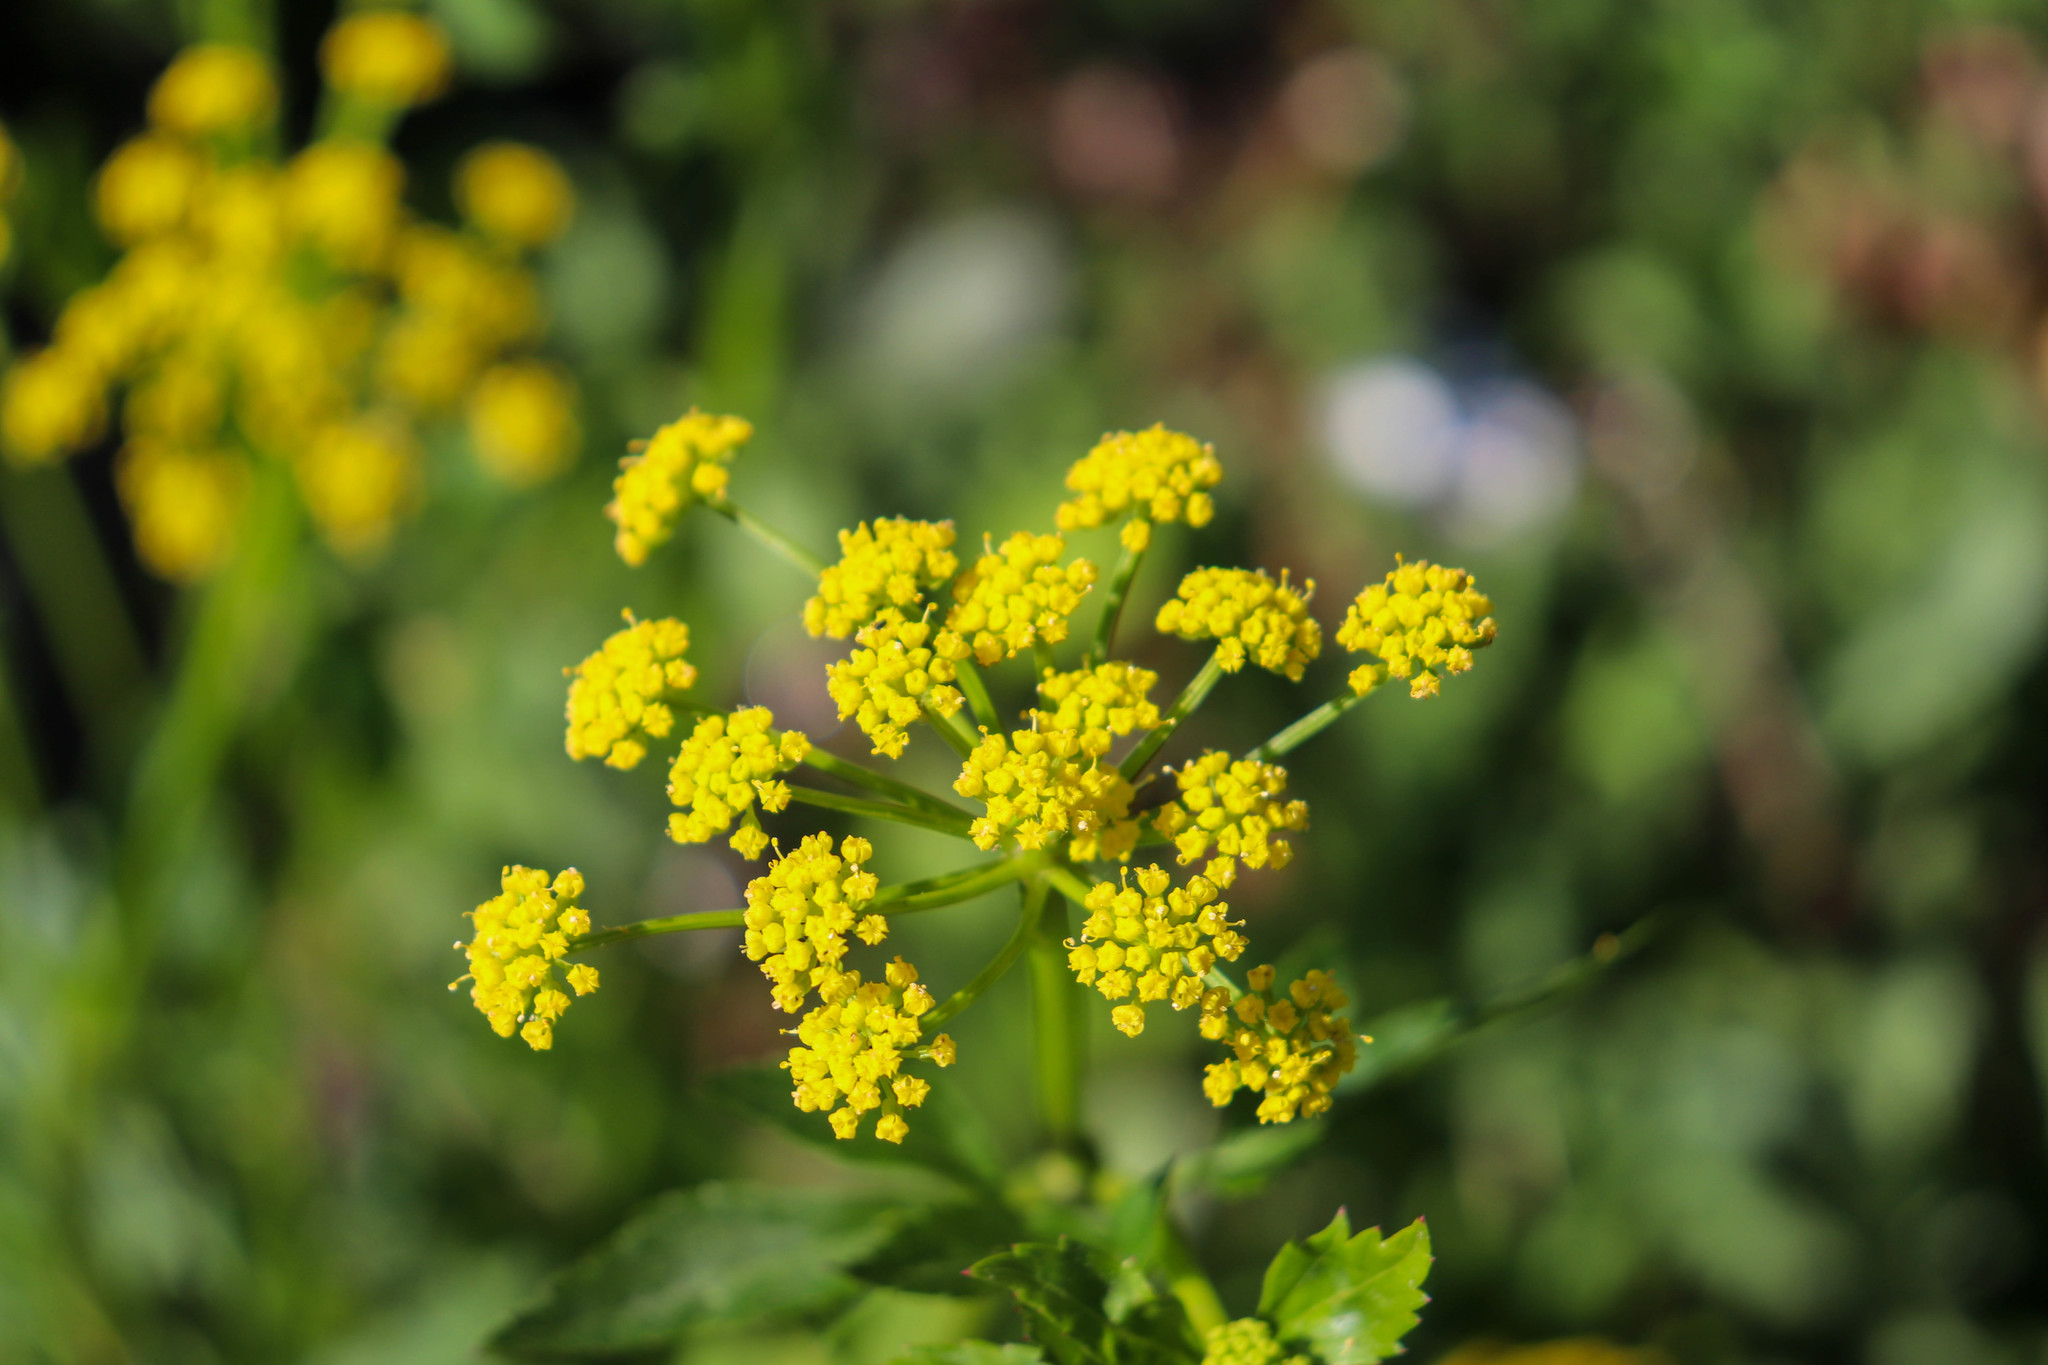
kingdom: Plantae
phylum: Tracheophyta
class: Magnoliopsida
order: Apiales
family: Apiaceae
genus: Zizia
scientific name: Zizia aurea
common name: Golden alexanders
